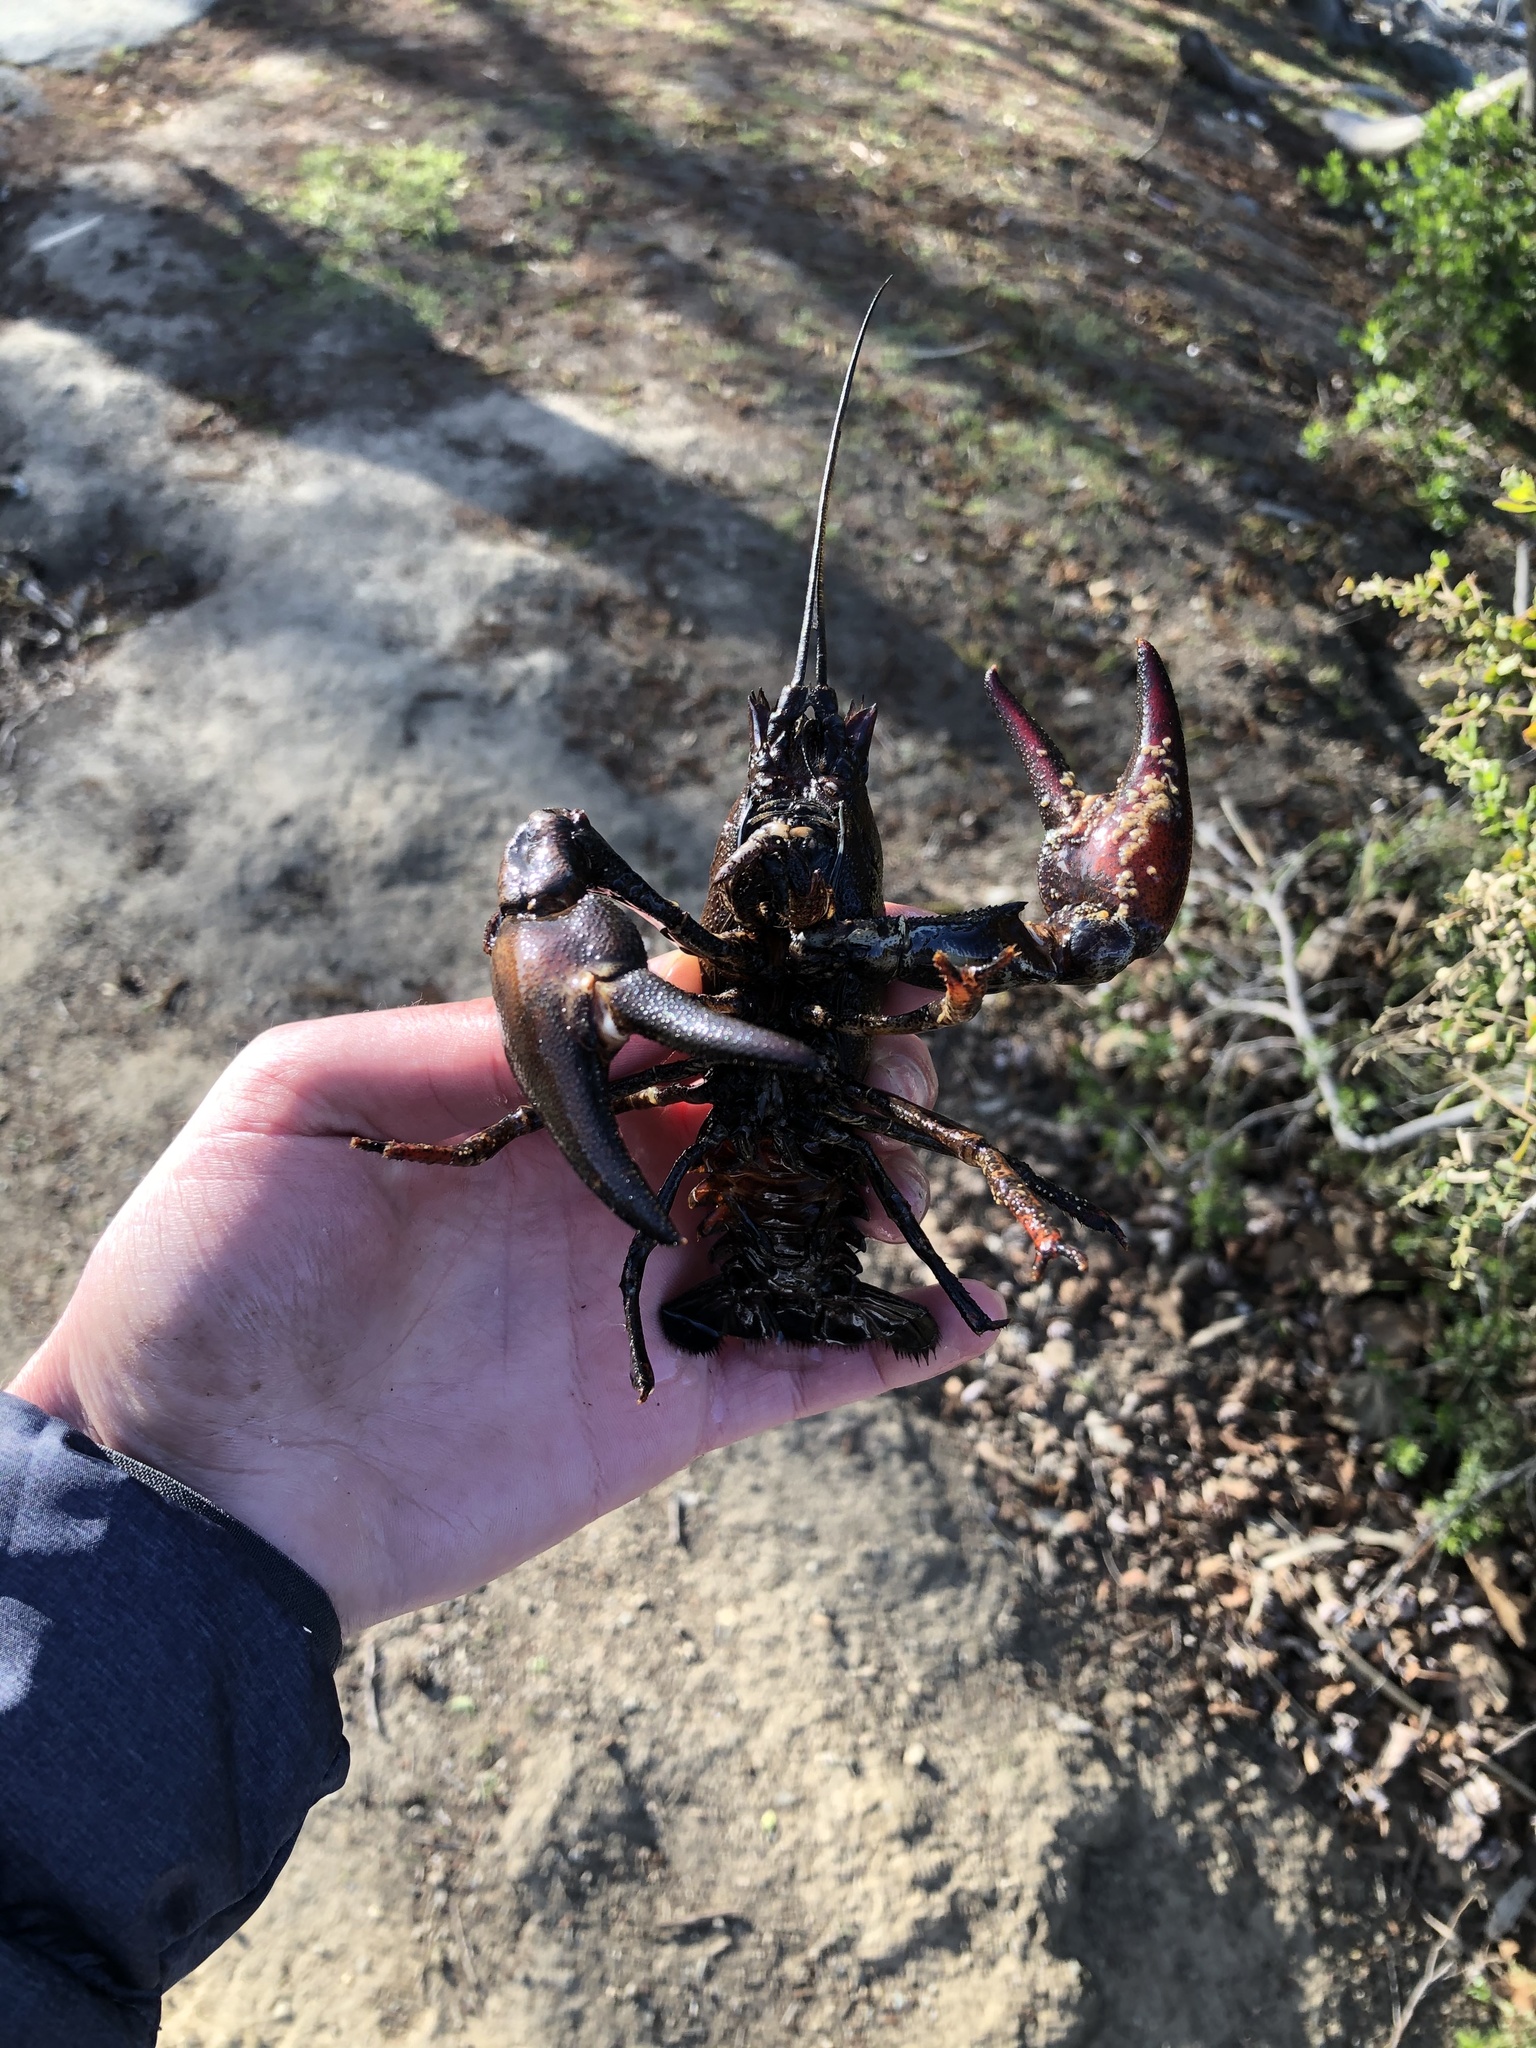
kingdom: Animalia
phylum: Arthropoda
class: Malacostraca
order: Decapoda
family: Astacidae
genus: Pacifastacus
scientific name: Pacifastacus leniusculus
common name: Signal crayfish
